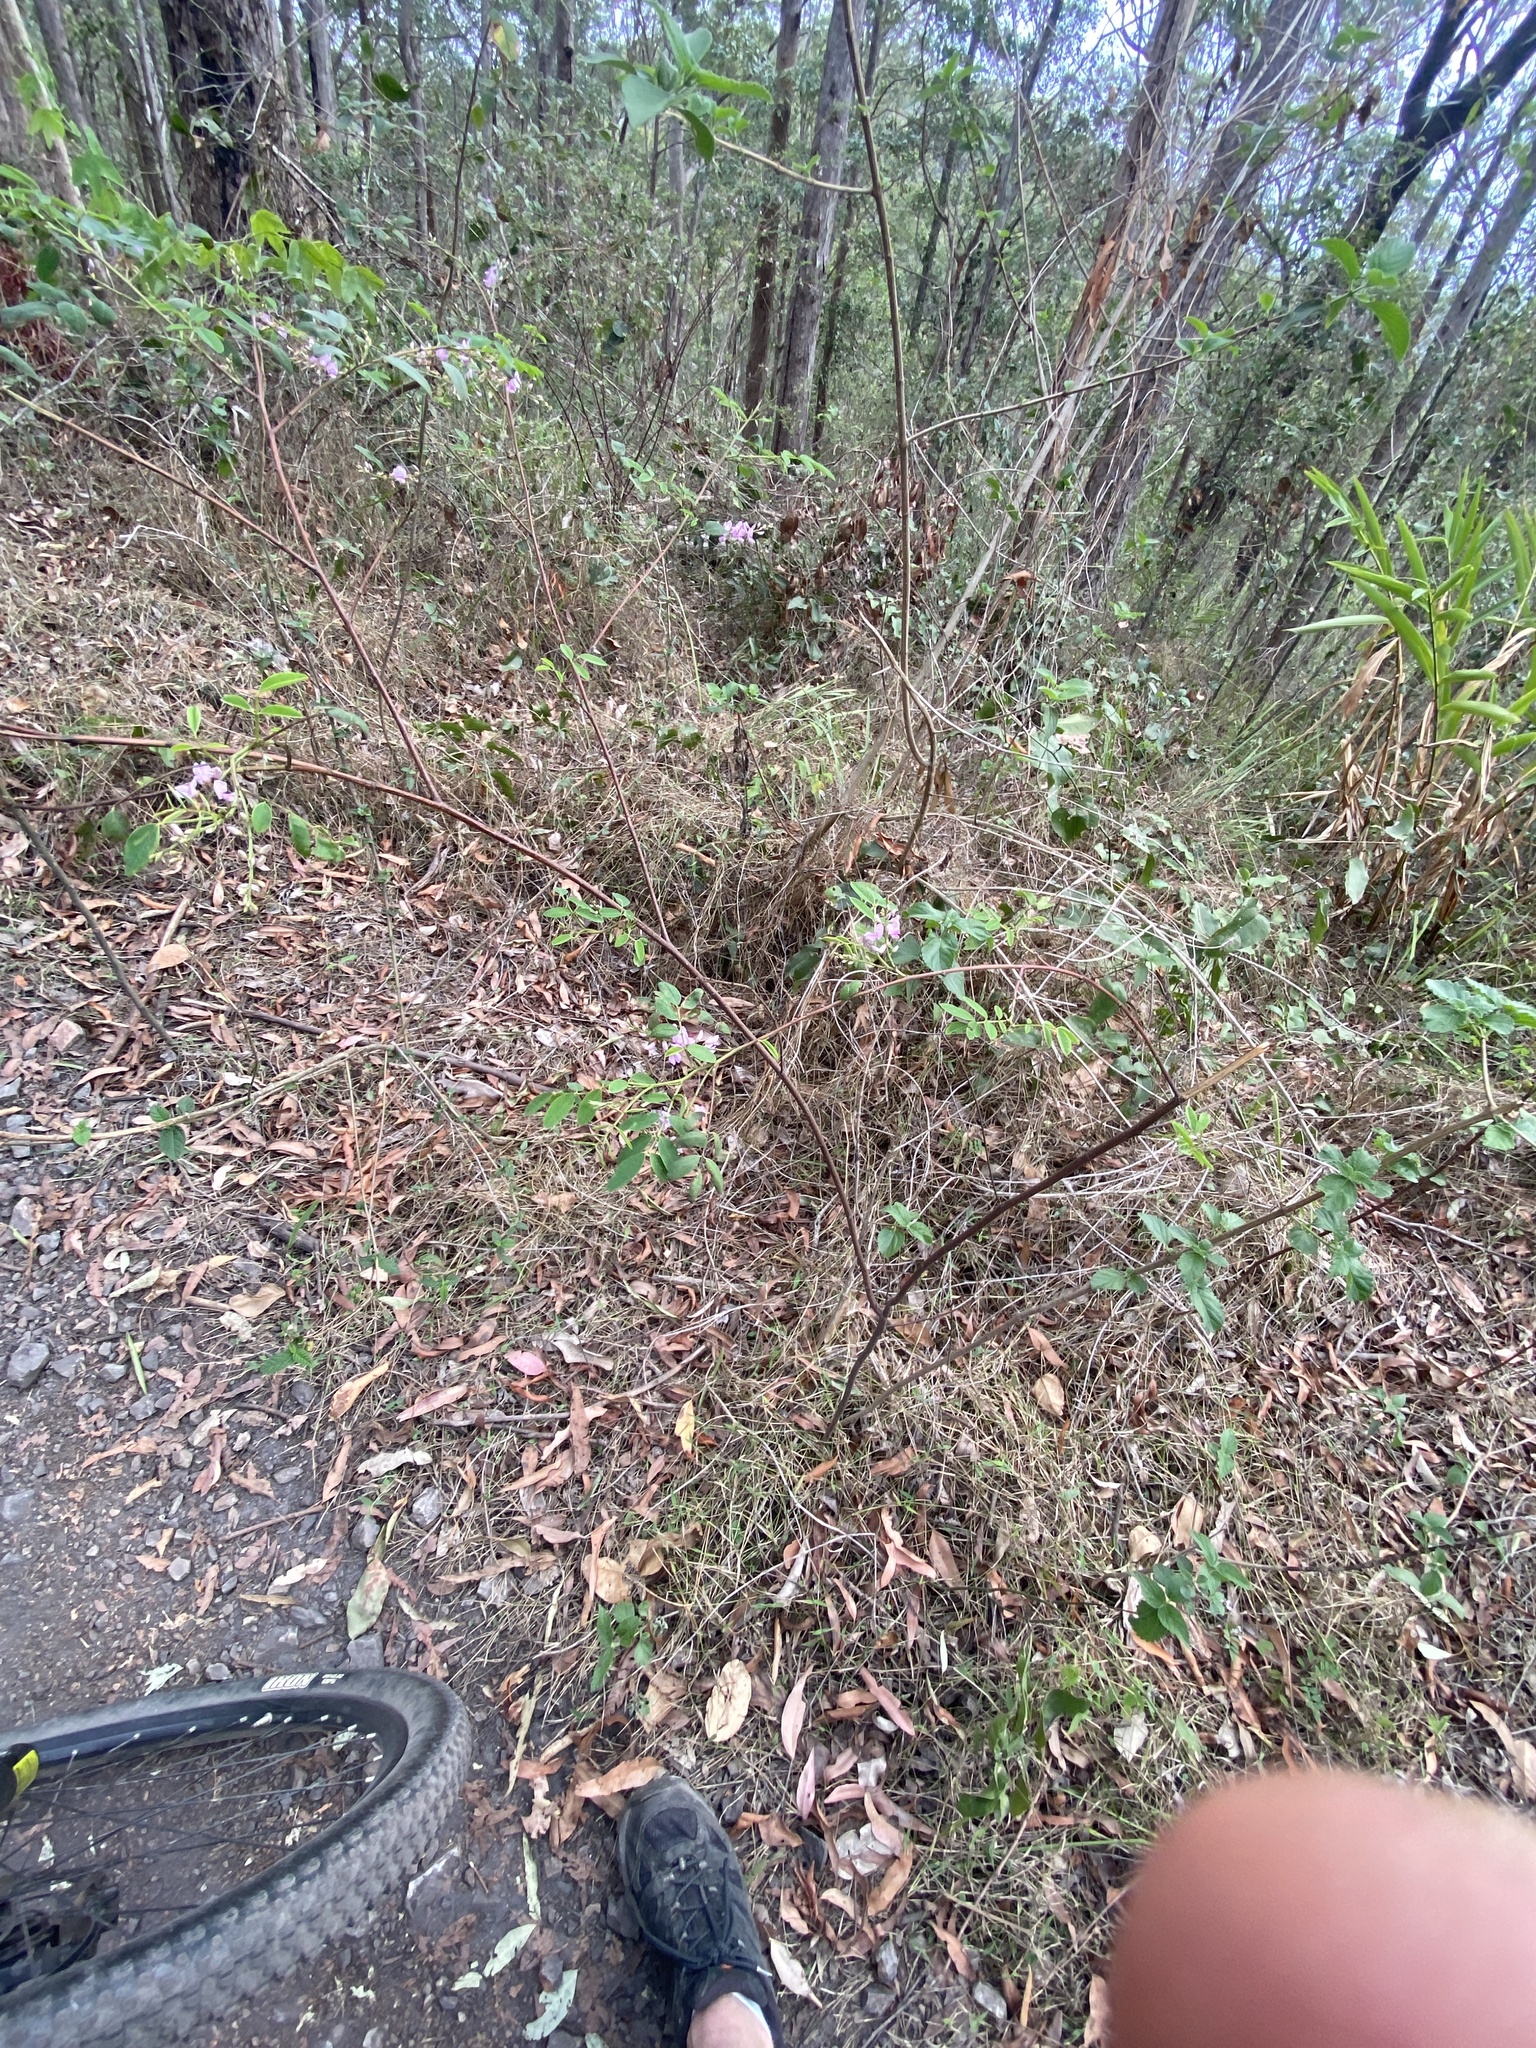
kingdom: Plantae
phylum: Tracheophyta
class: Magnoliopsida
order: Fabales
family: Fabaceae
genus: Indigofera
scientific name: Indigofera australis
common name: Australian indigo
